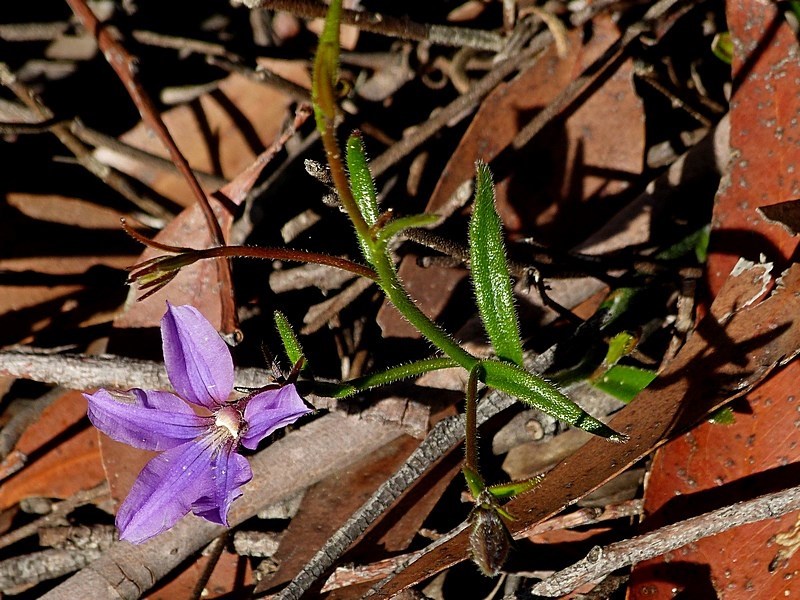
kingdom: Plantae
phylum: Tracheophyta
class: Magnoliopsida
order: Asterales
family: Goodeniaceae
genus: Scaevola
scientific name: Scaevola ramosissima
